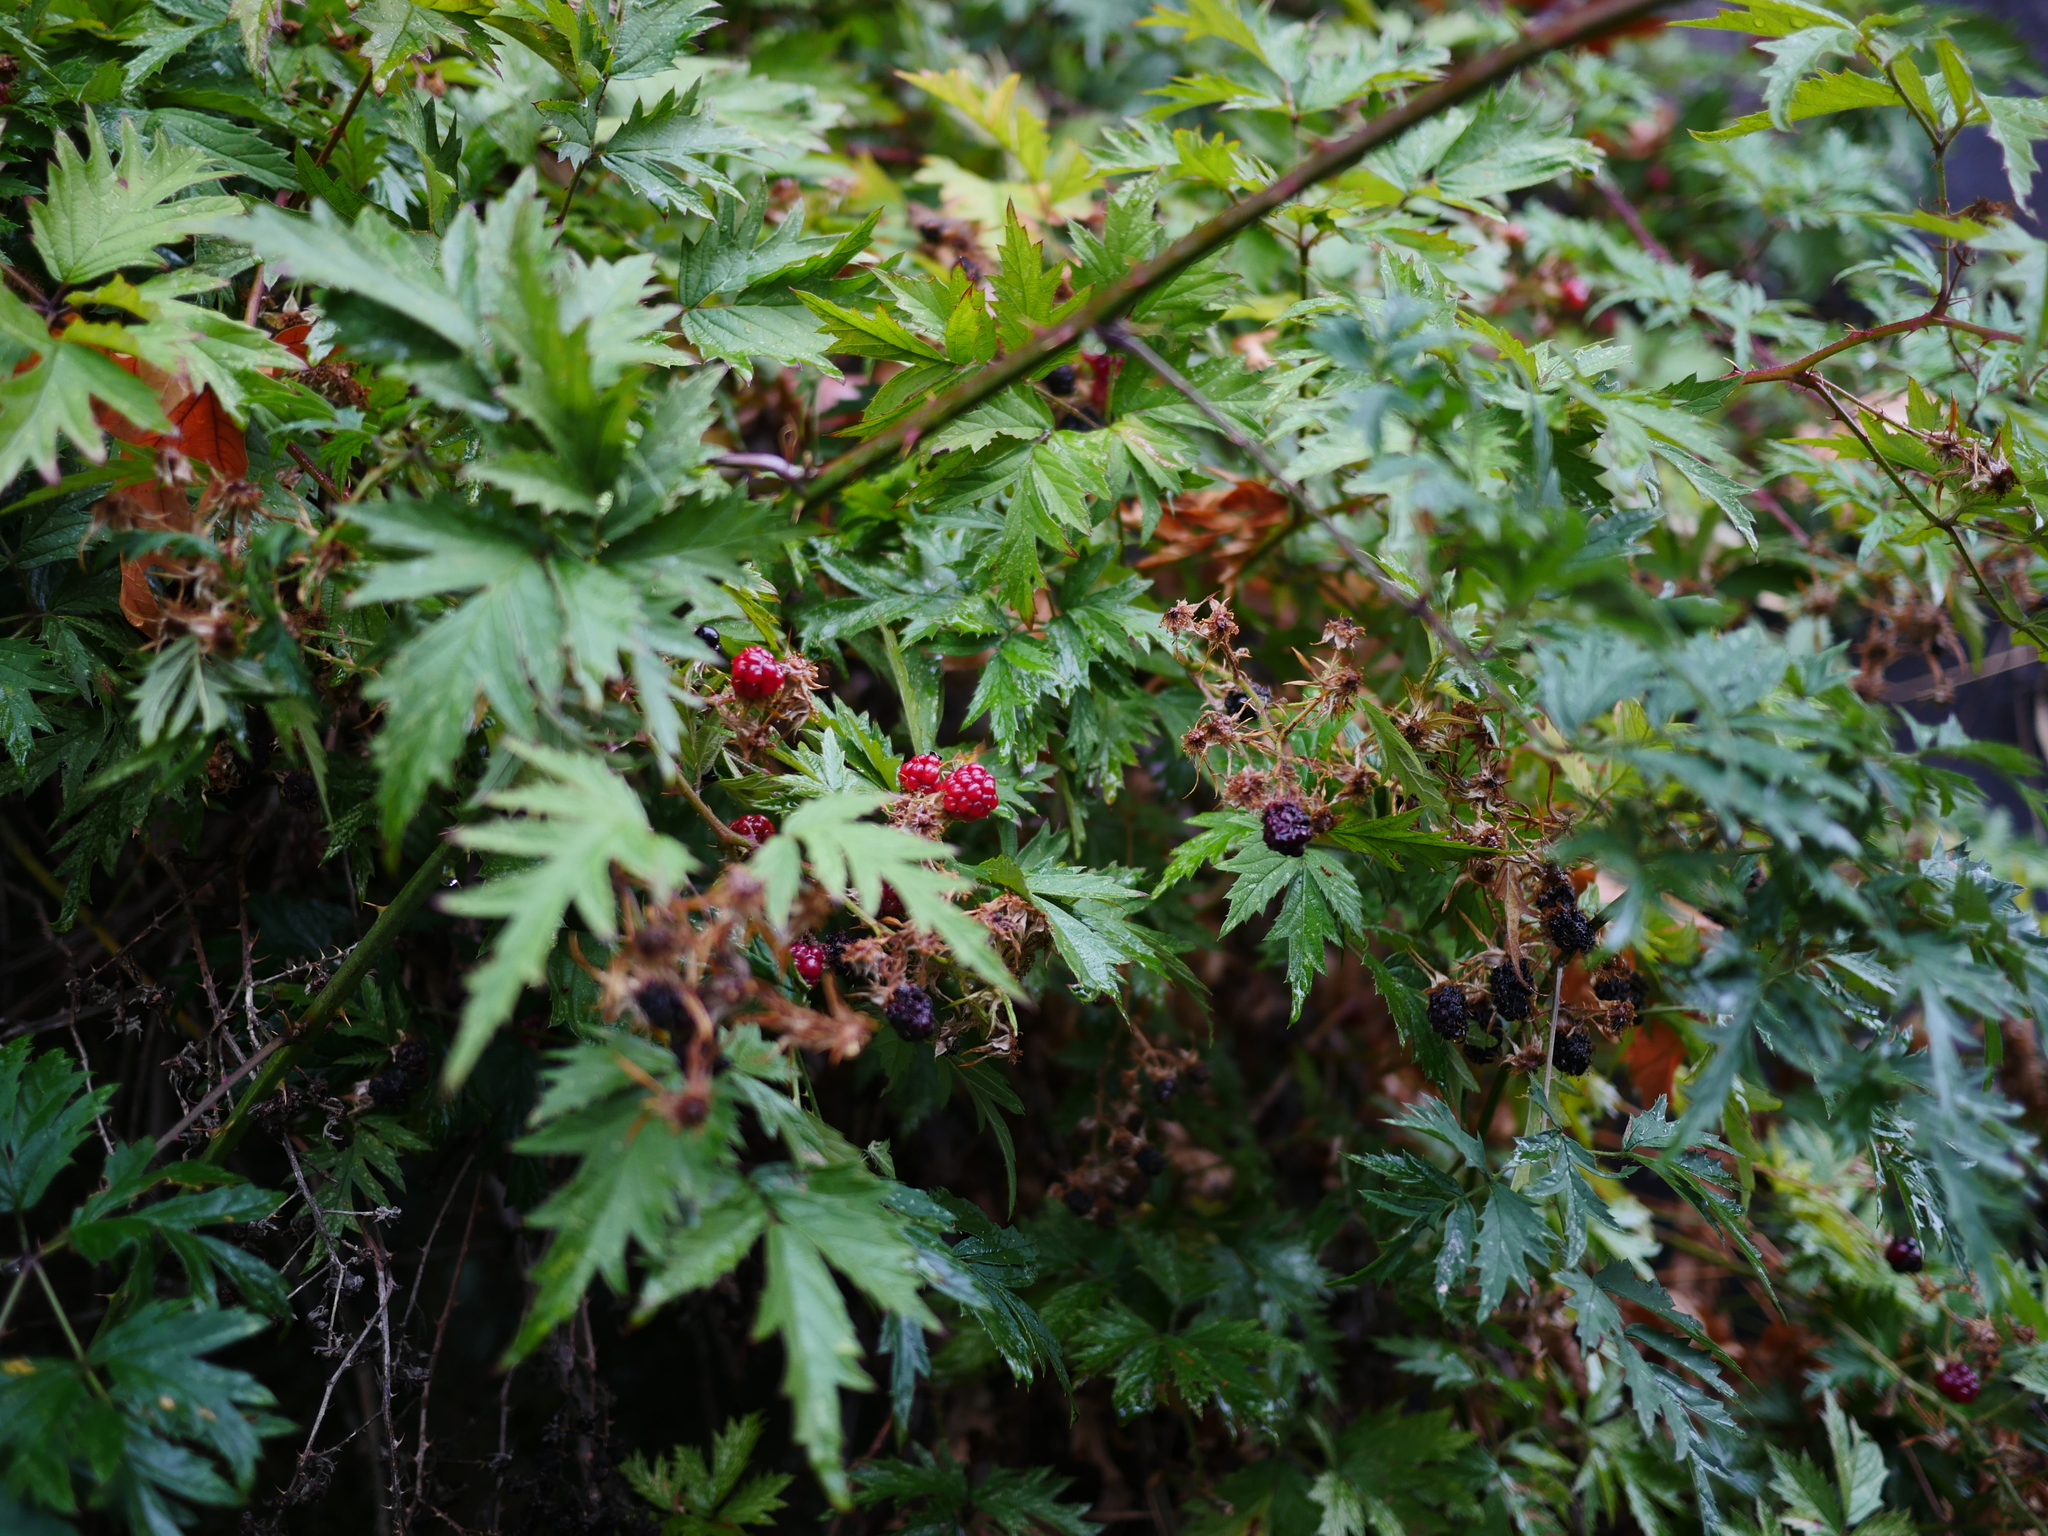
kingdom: Plantae
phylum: Tracheophyta
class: Magnoliopsida
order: Rosales
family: Rosaceae
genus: Rubus
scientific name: Rubus laciniatus
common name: Evergreen blackberry
